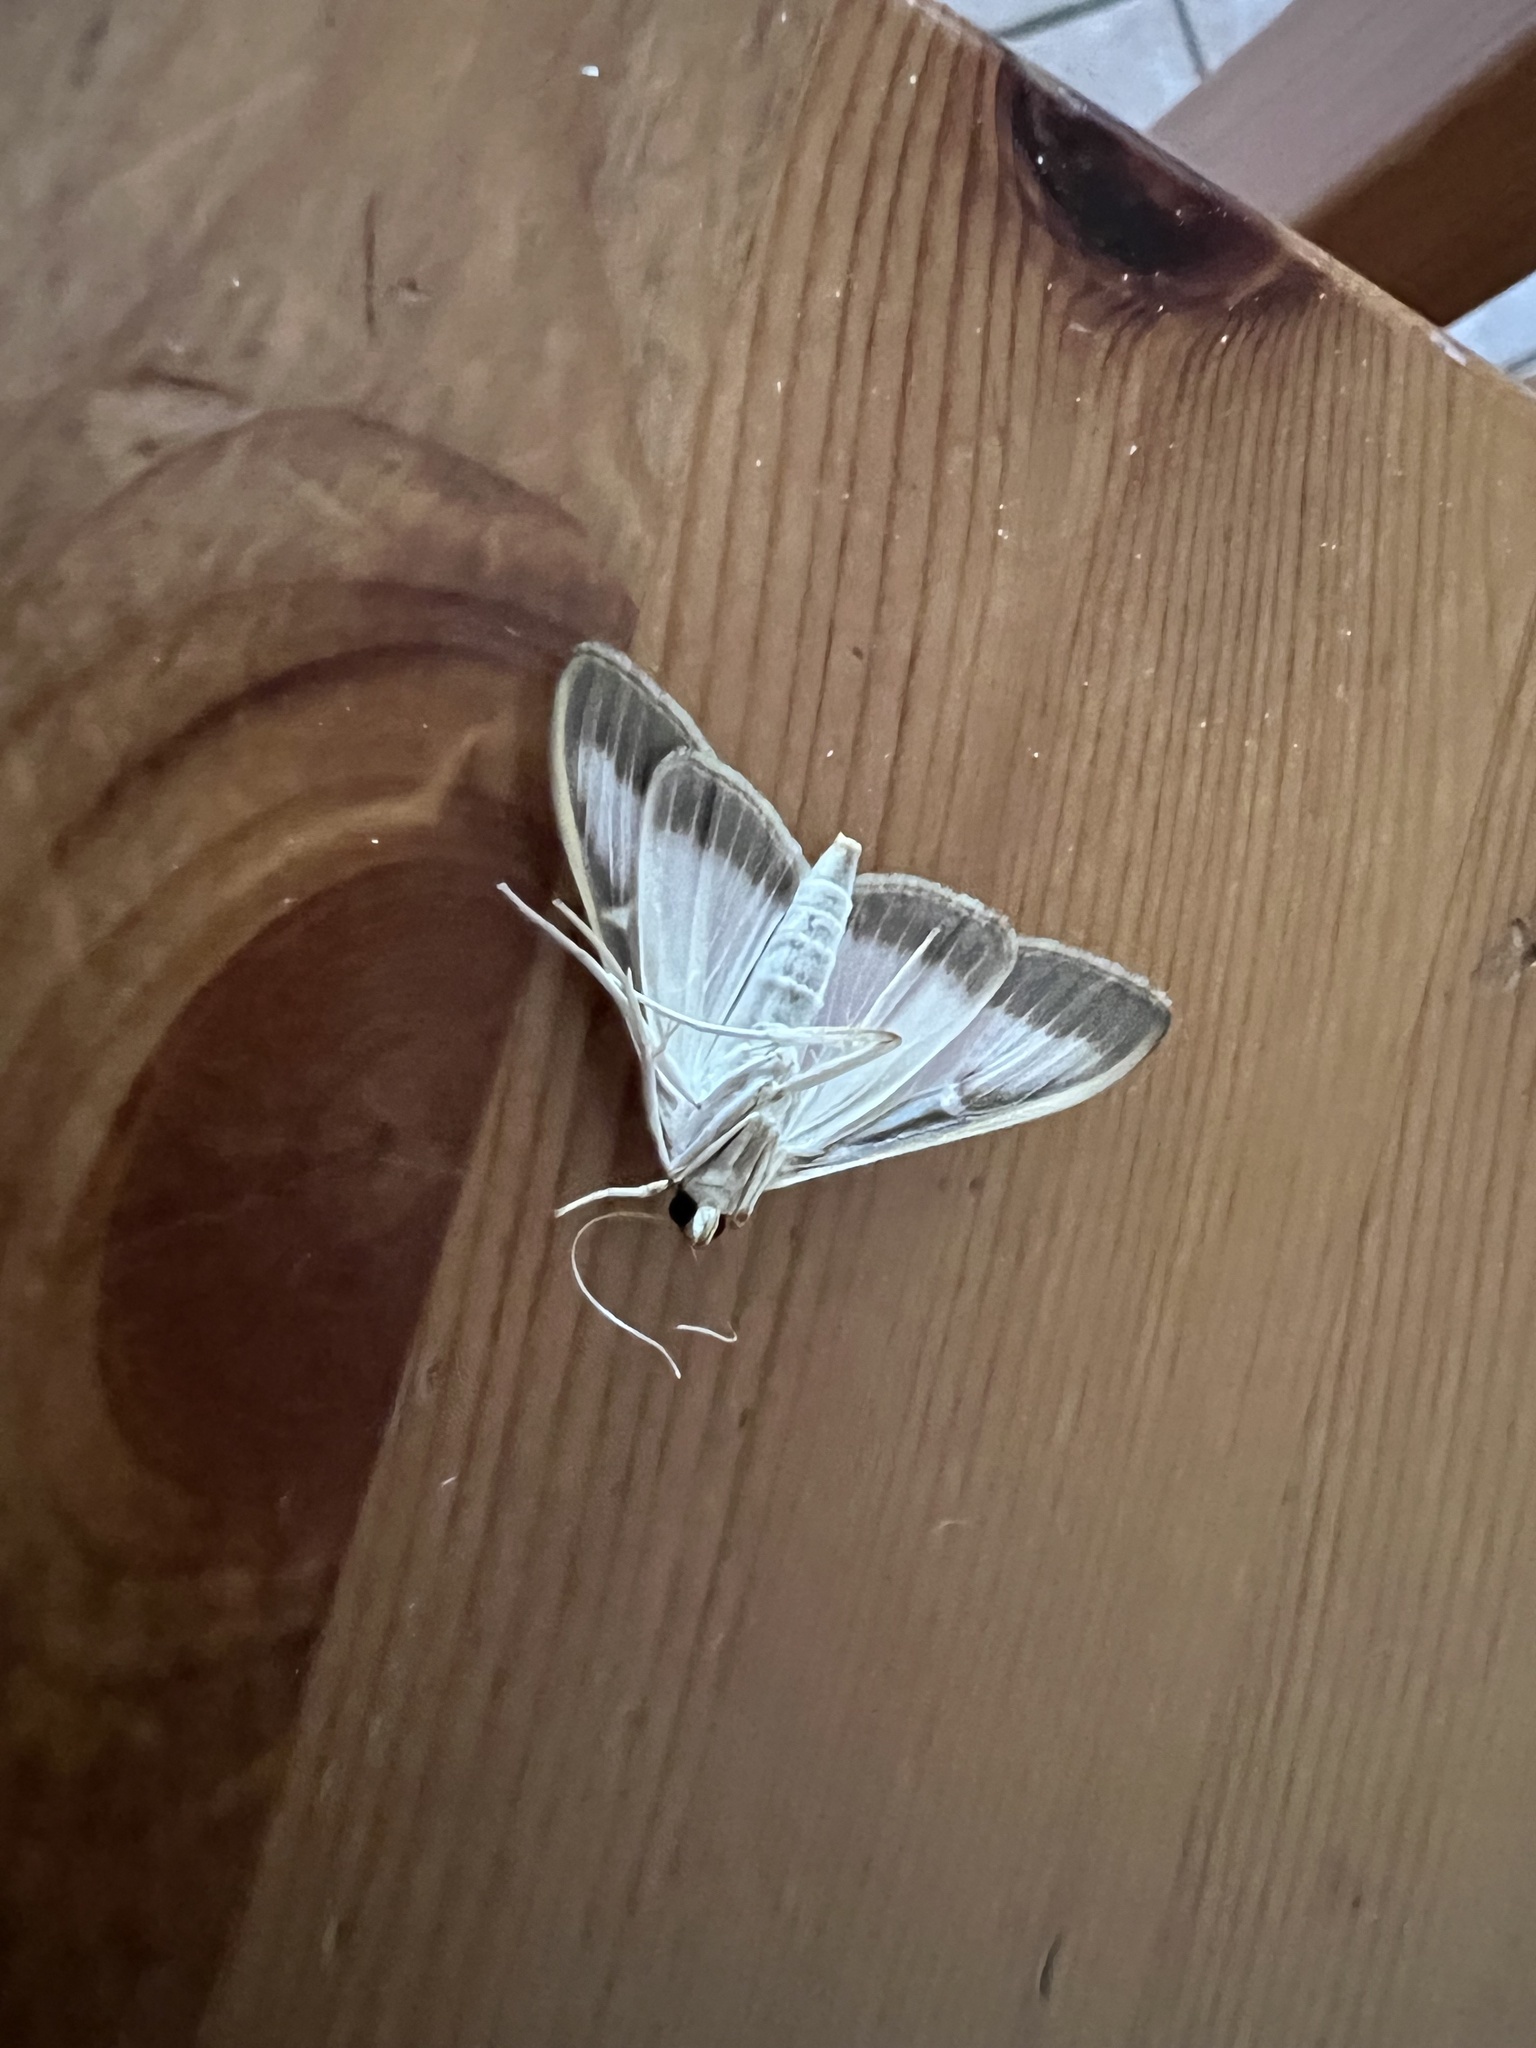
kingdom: Animalia
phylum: Arthropoda
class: Insecta
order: Lepidoptera
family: Crambidae
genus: Cydalima
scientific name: Cydalima perspectalis
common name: Box tree moth
